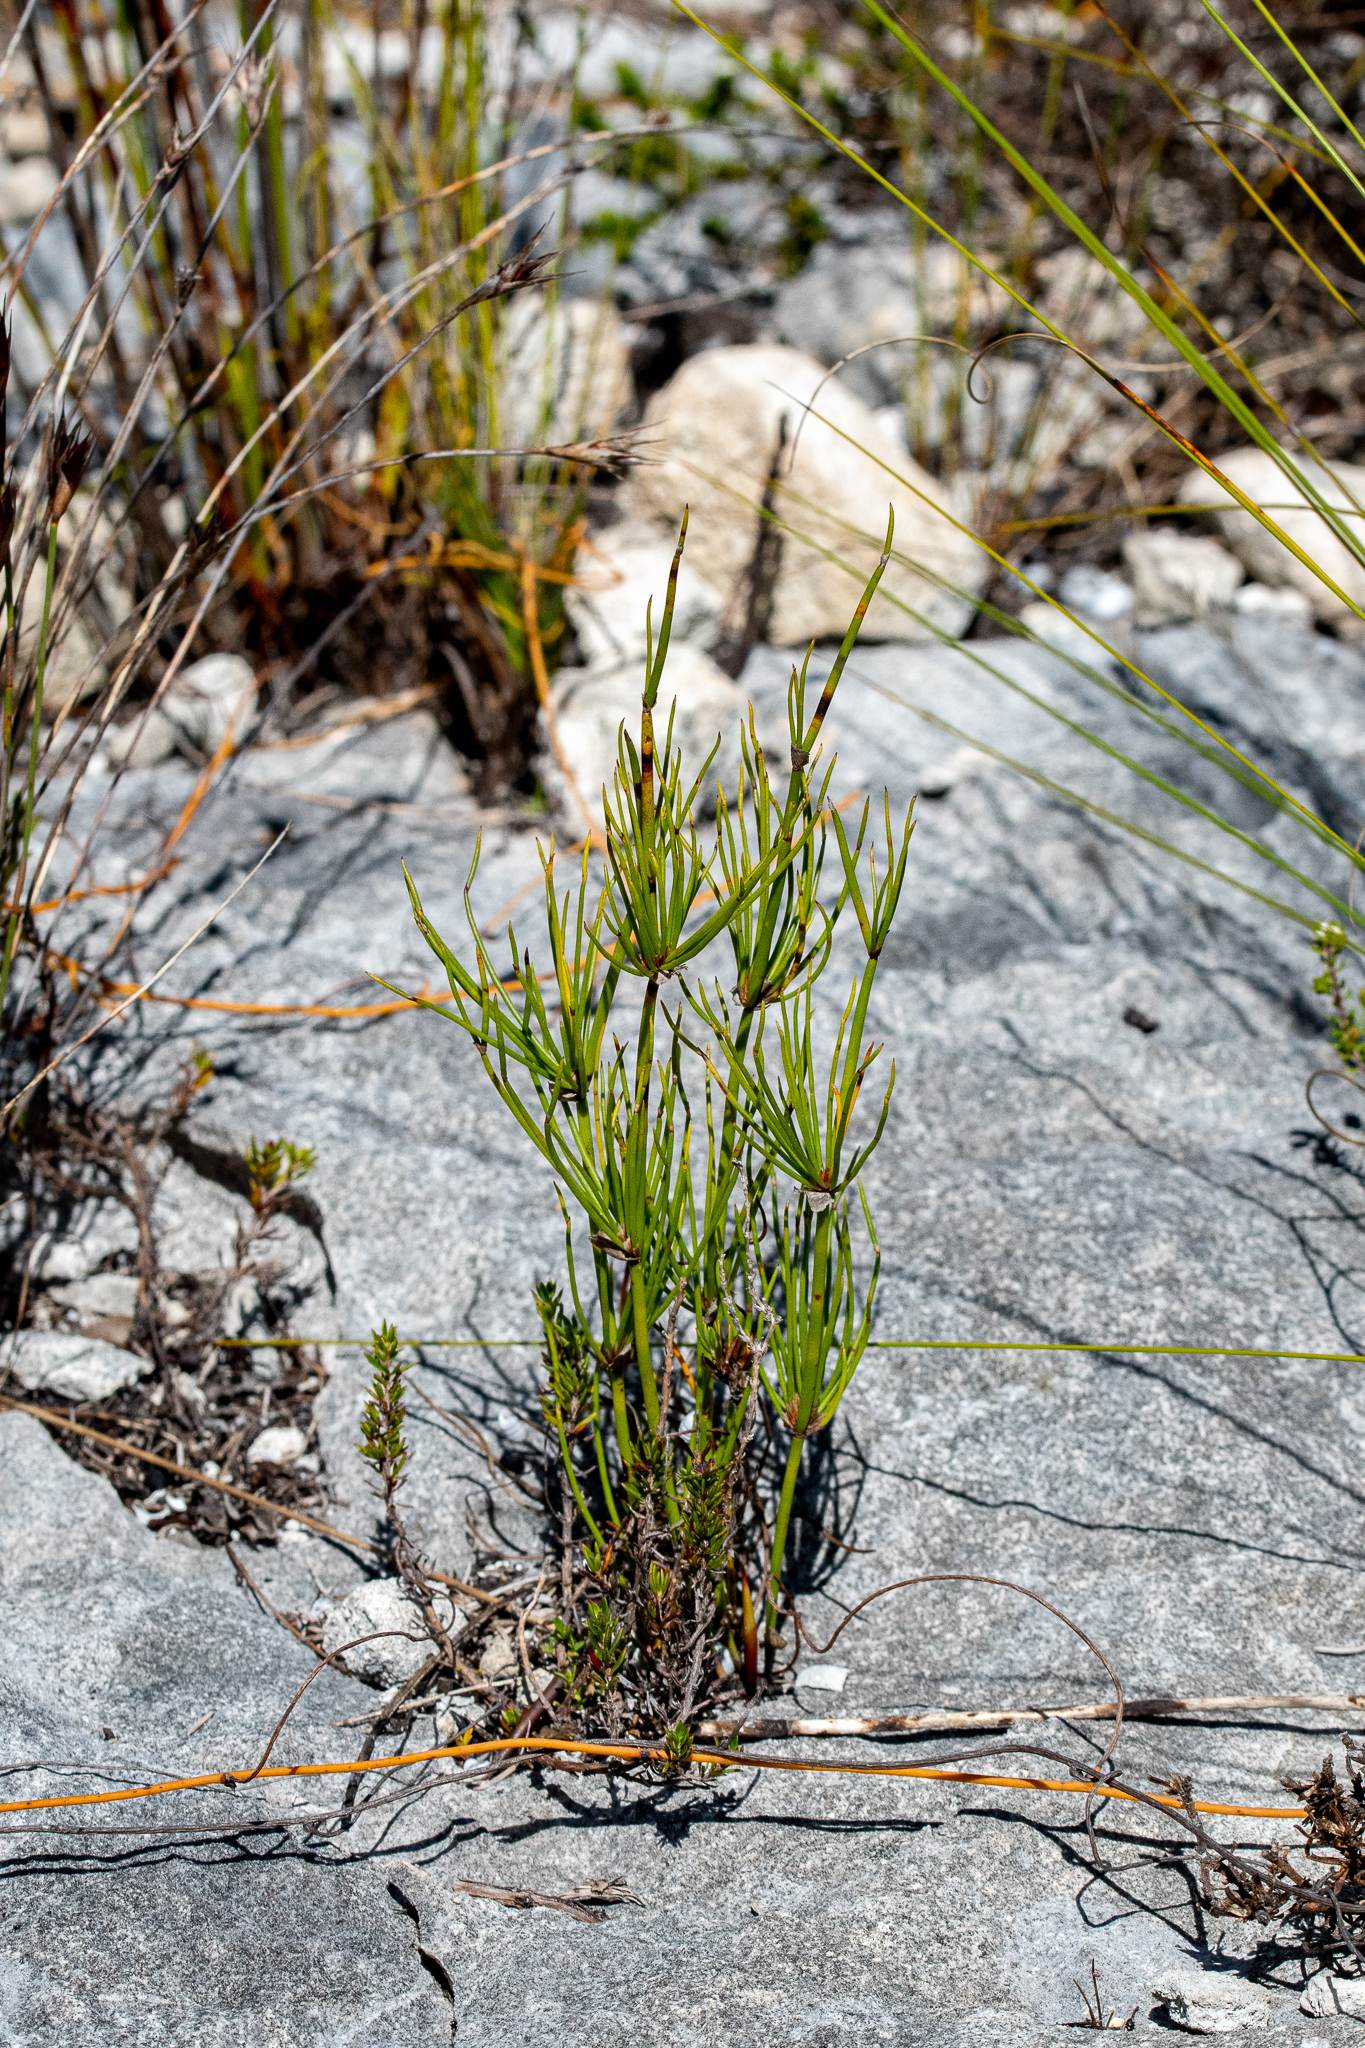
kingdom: Plantae
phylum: Tracheophyta
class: Liliopsida
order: Poales
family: Restionaceae
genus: Elegia
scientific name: Elegia capensis
